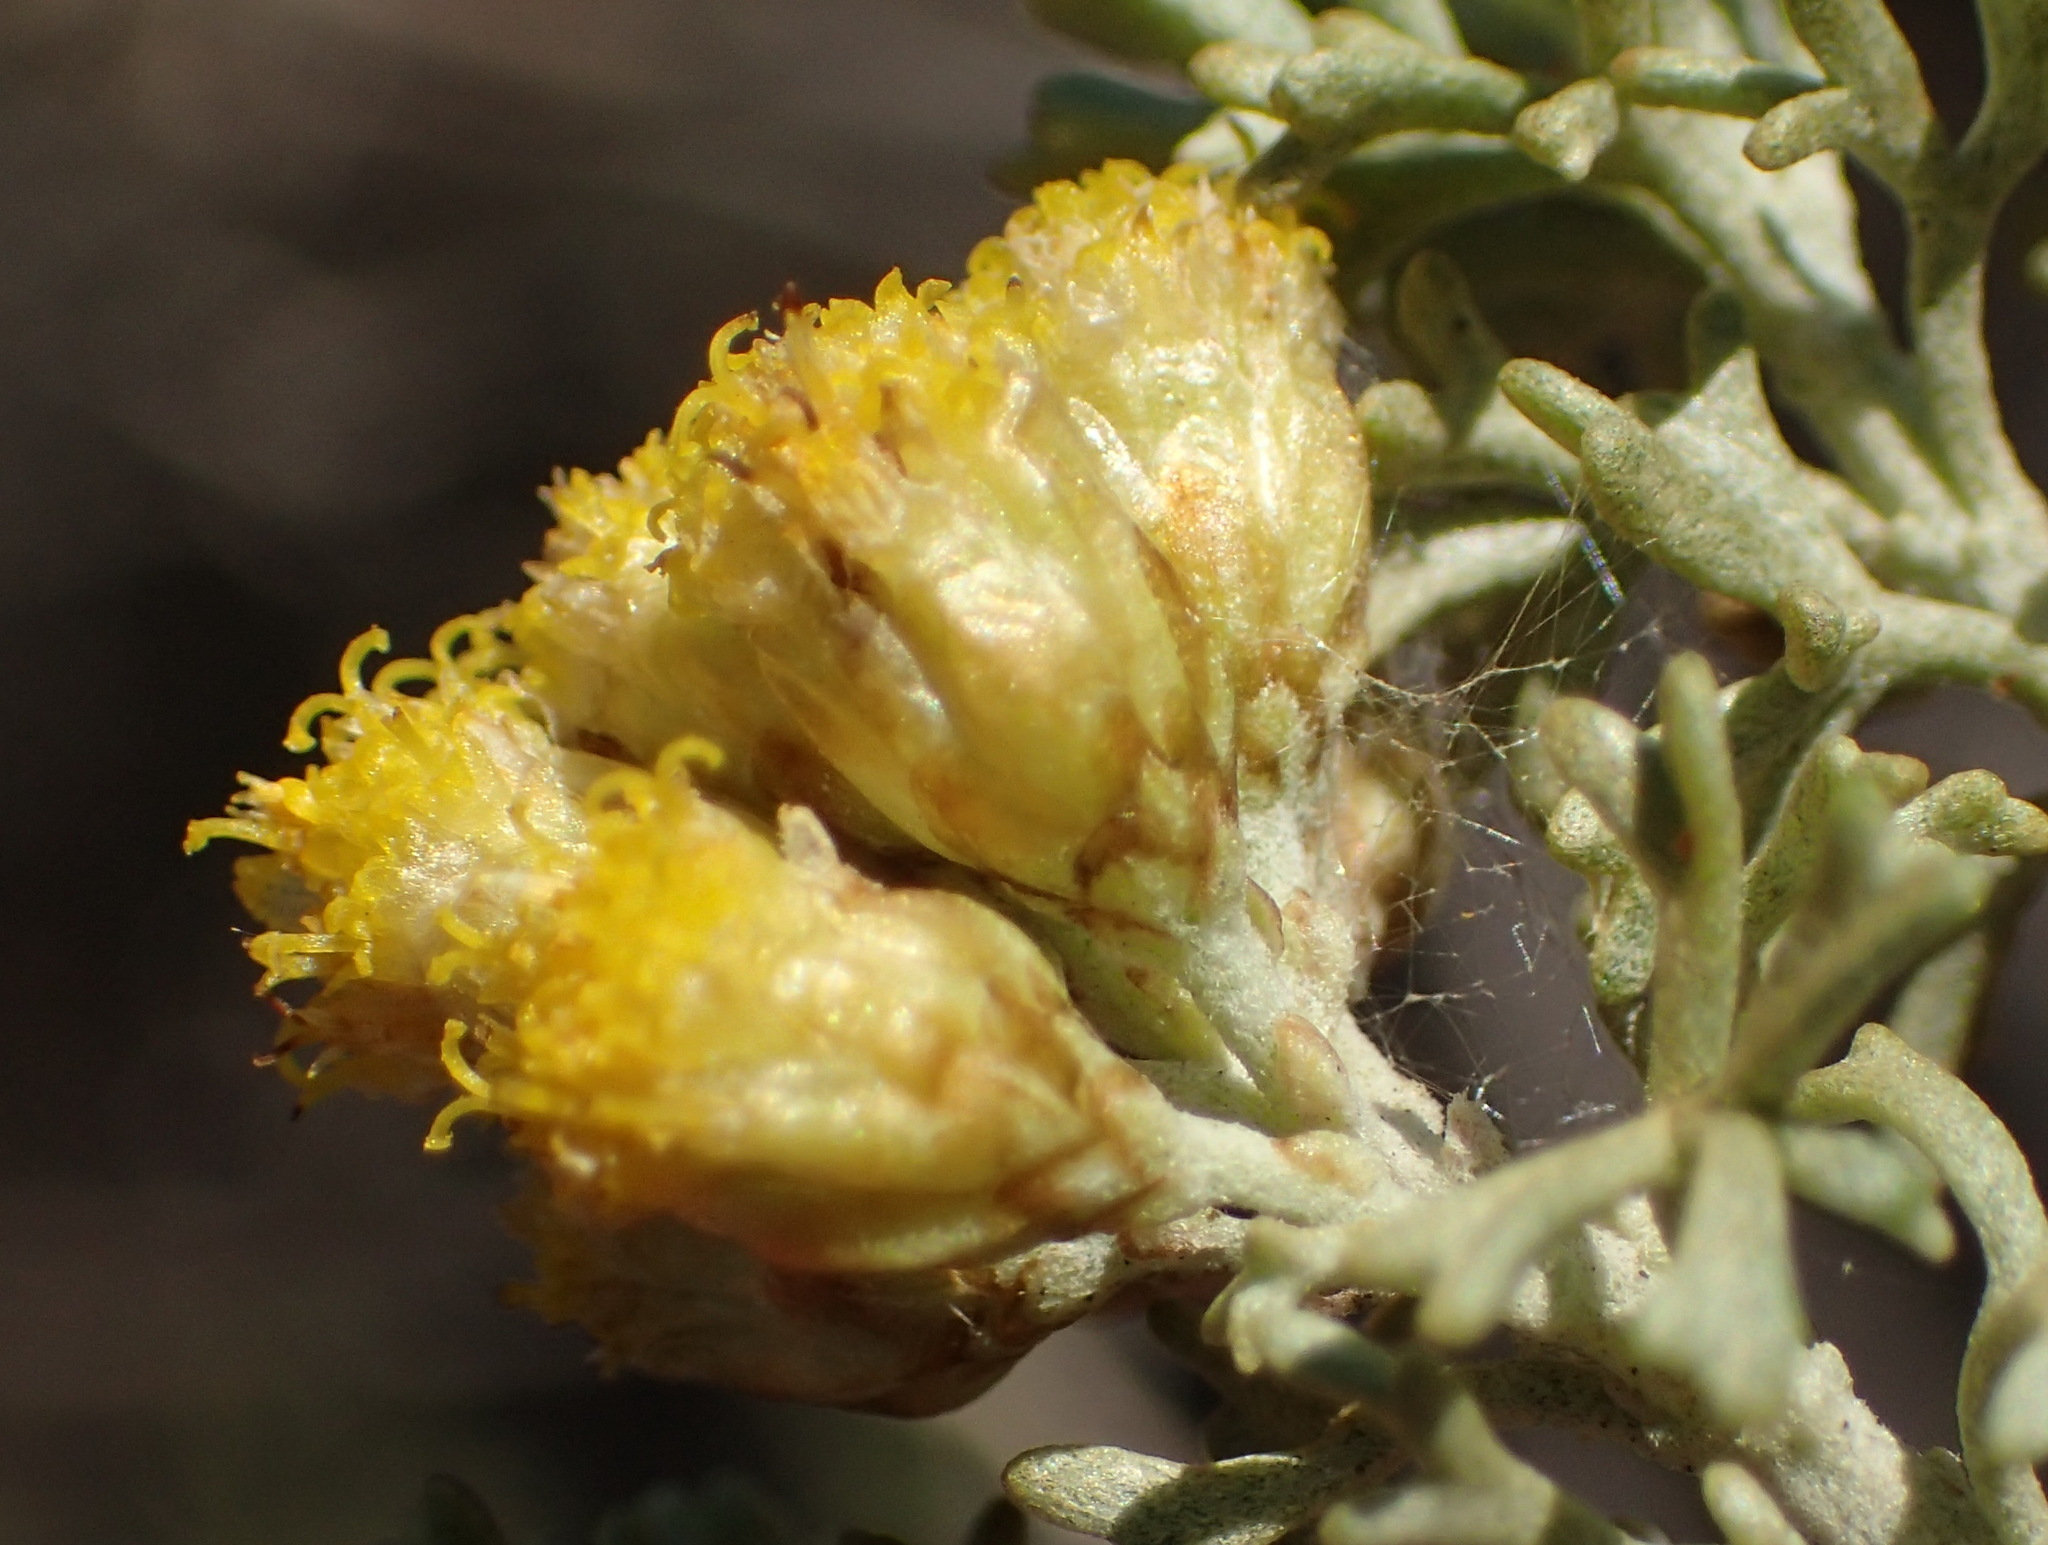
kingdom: Plantae
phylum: Tracheophyta
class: Magnoliopsida
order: Asterales
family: Asteraceae
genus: Pentzia
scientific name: Pentzia elegans
